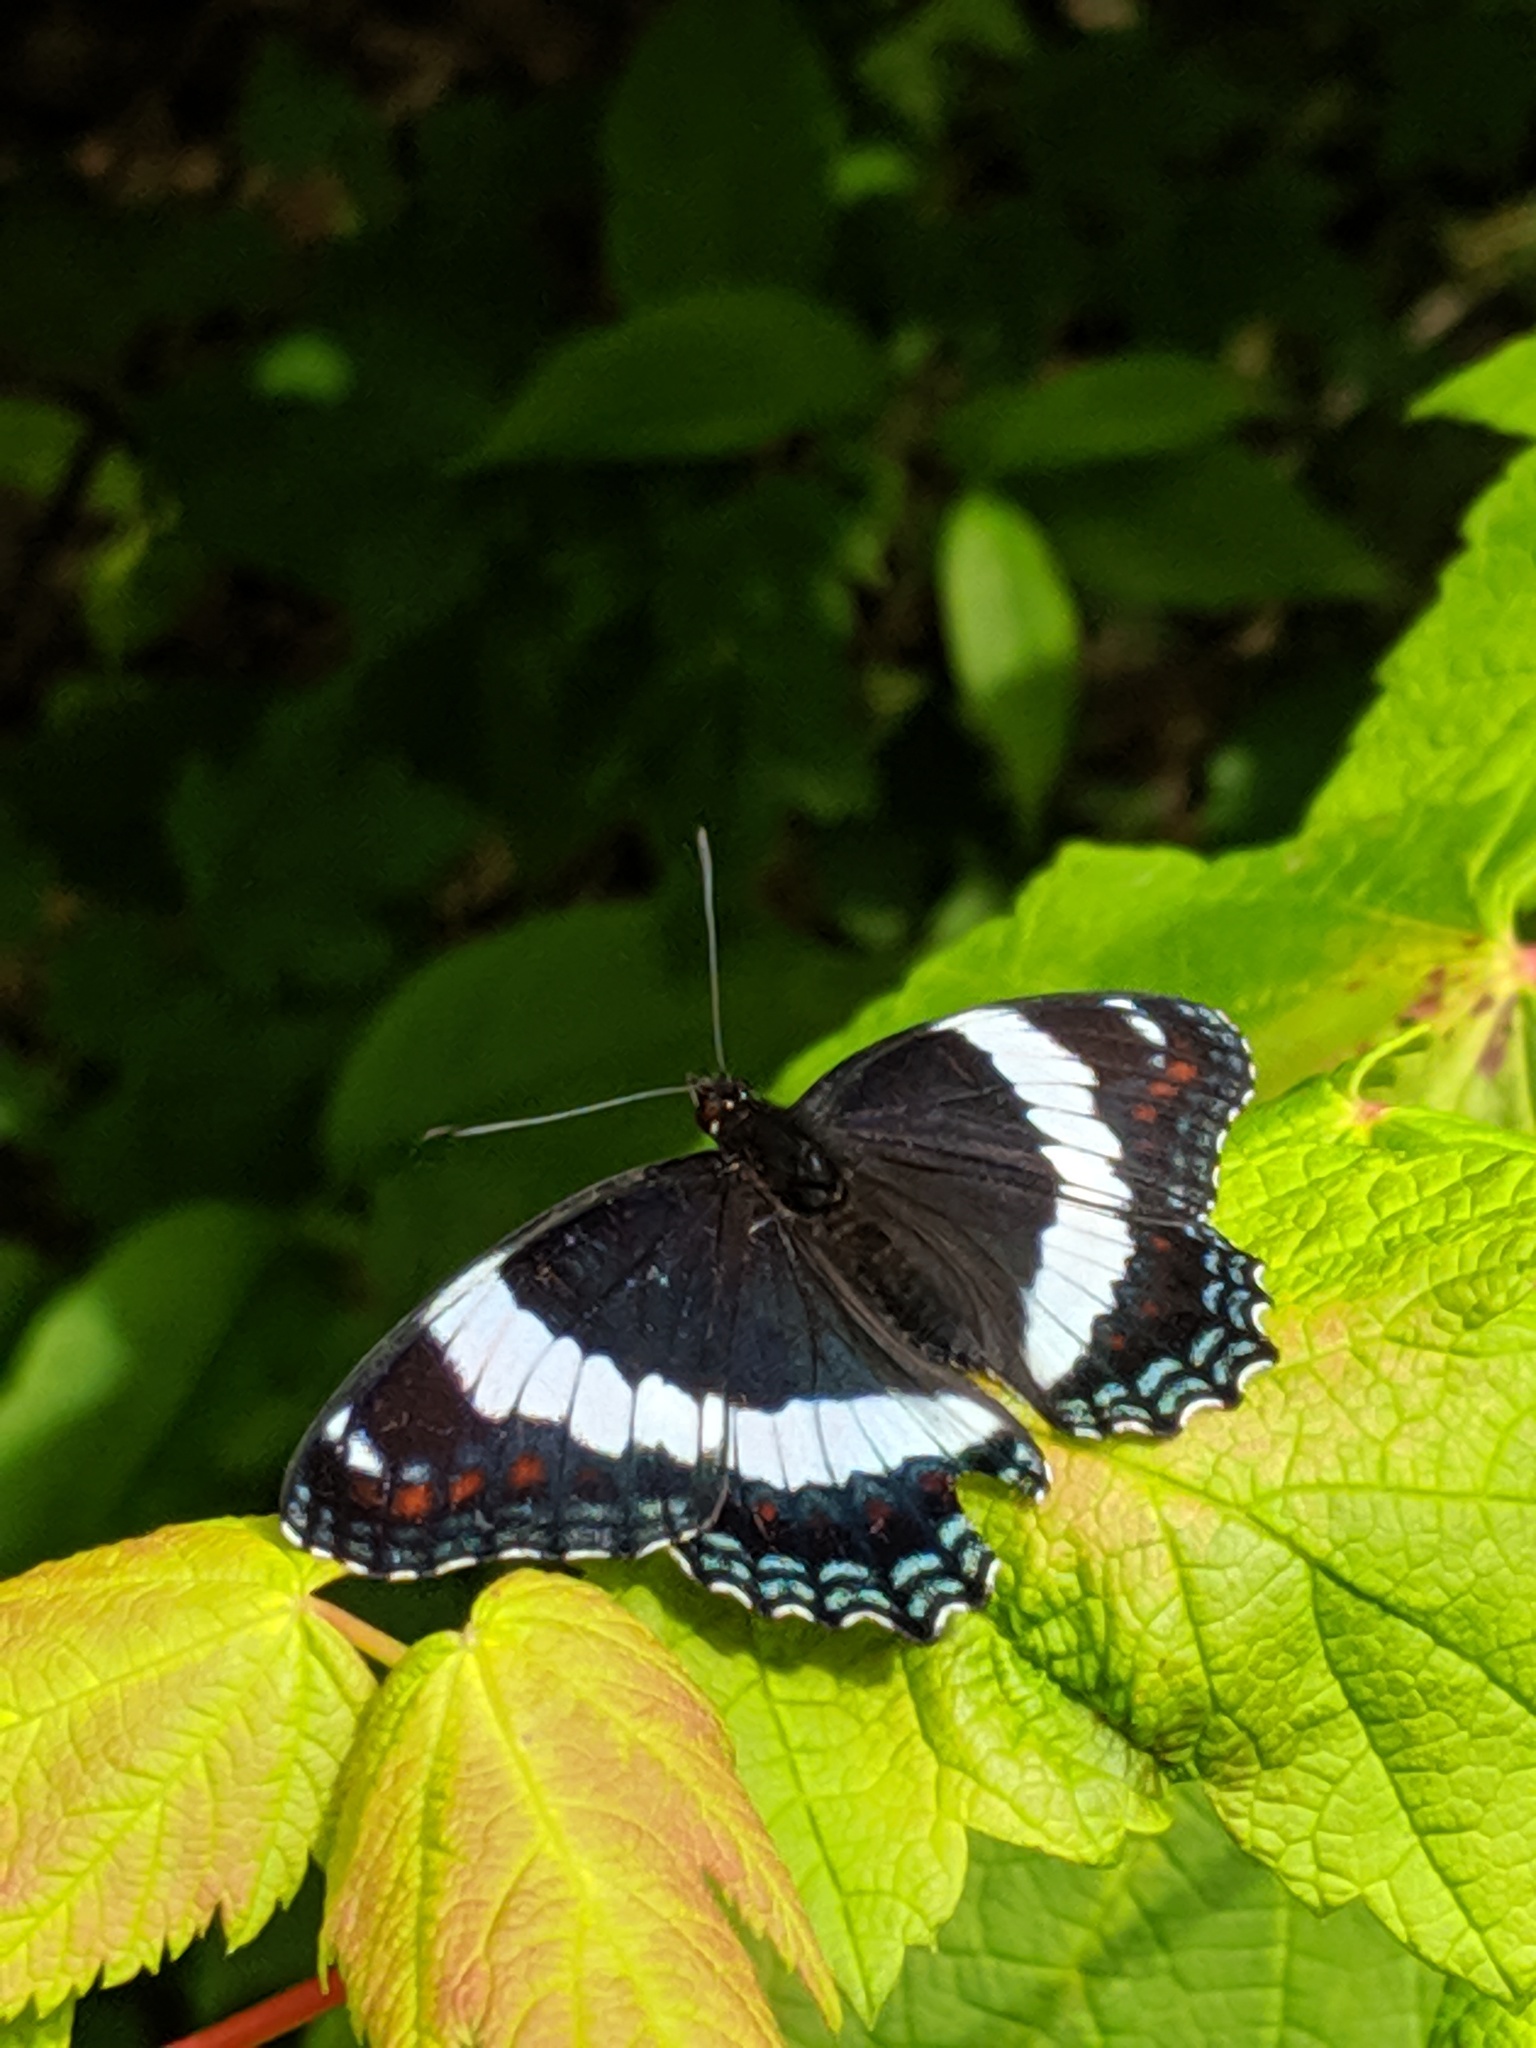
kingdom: Animalia
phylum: Arthropoda
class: Insecta
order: Lepidoptera
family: Nymphalidae
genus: Limenitis
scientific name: Limenitis arthemis
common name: Red-spotted admiral
